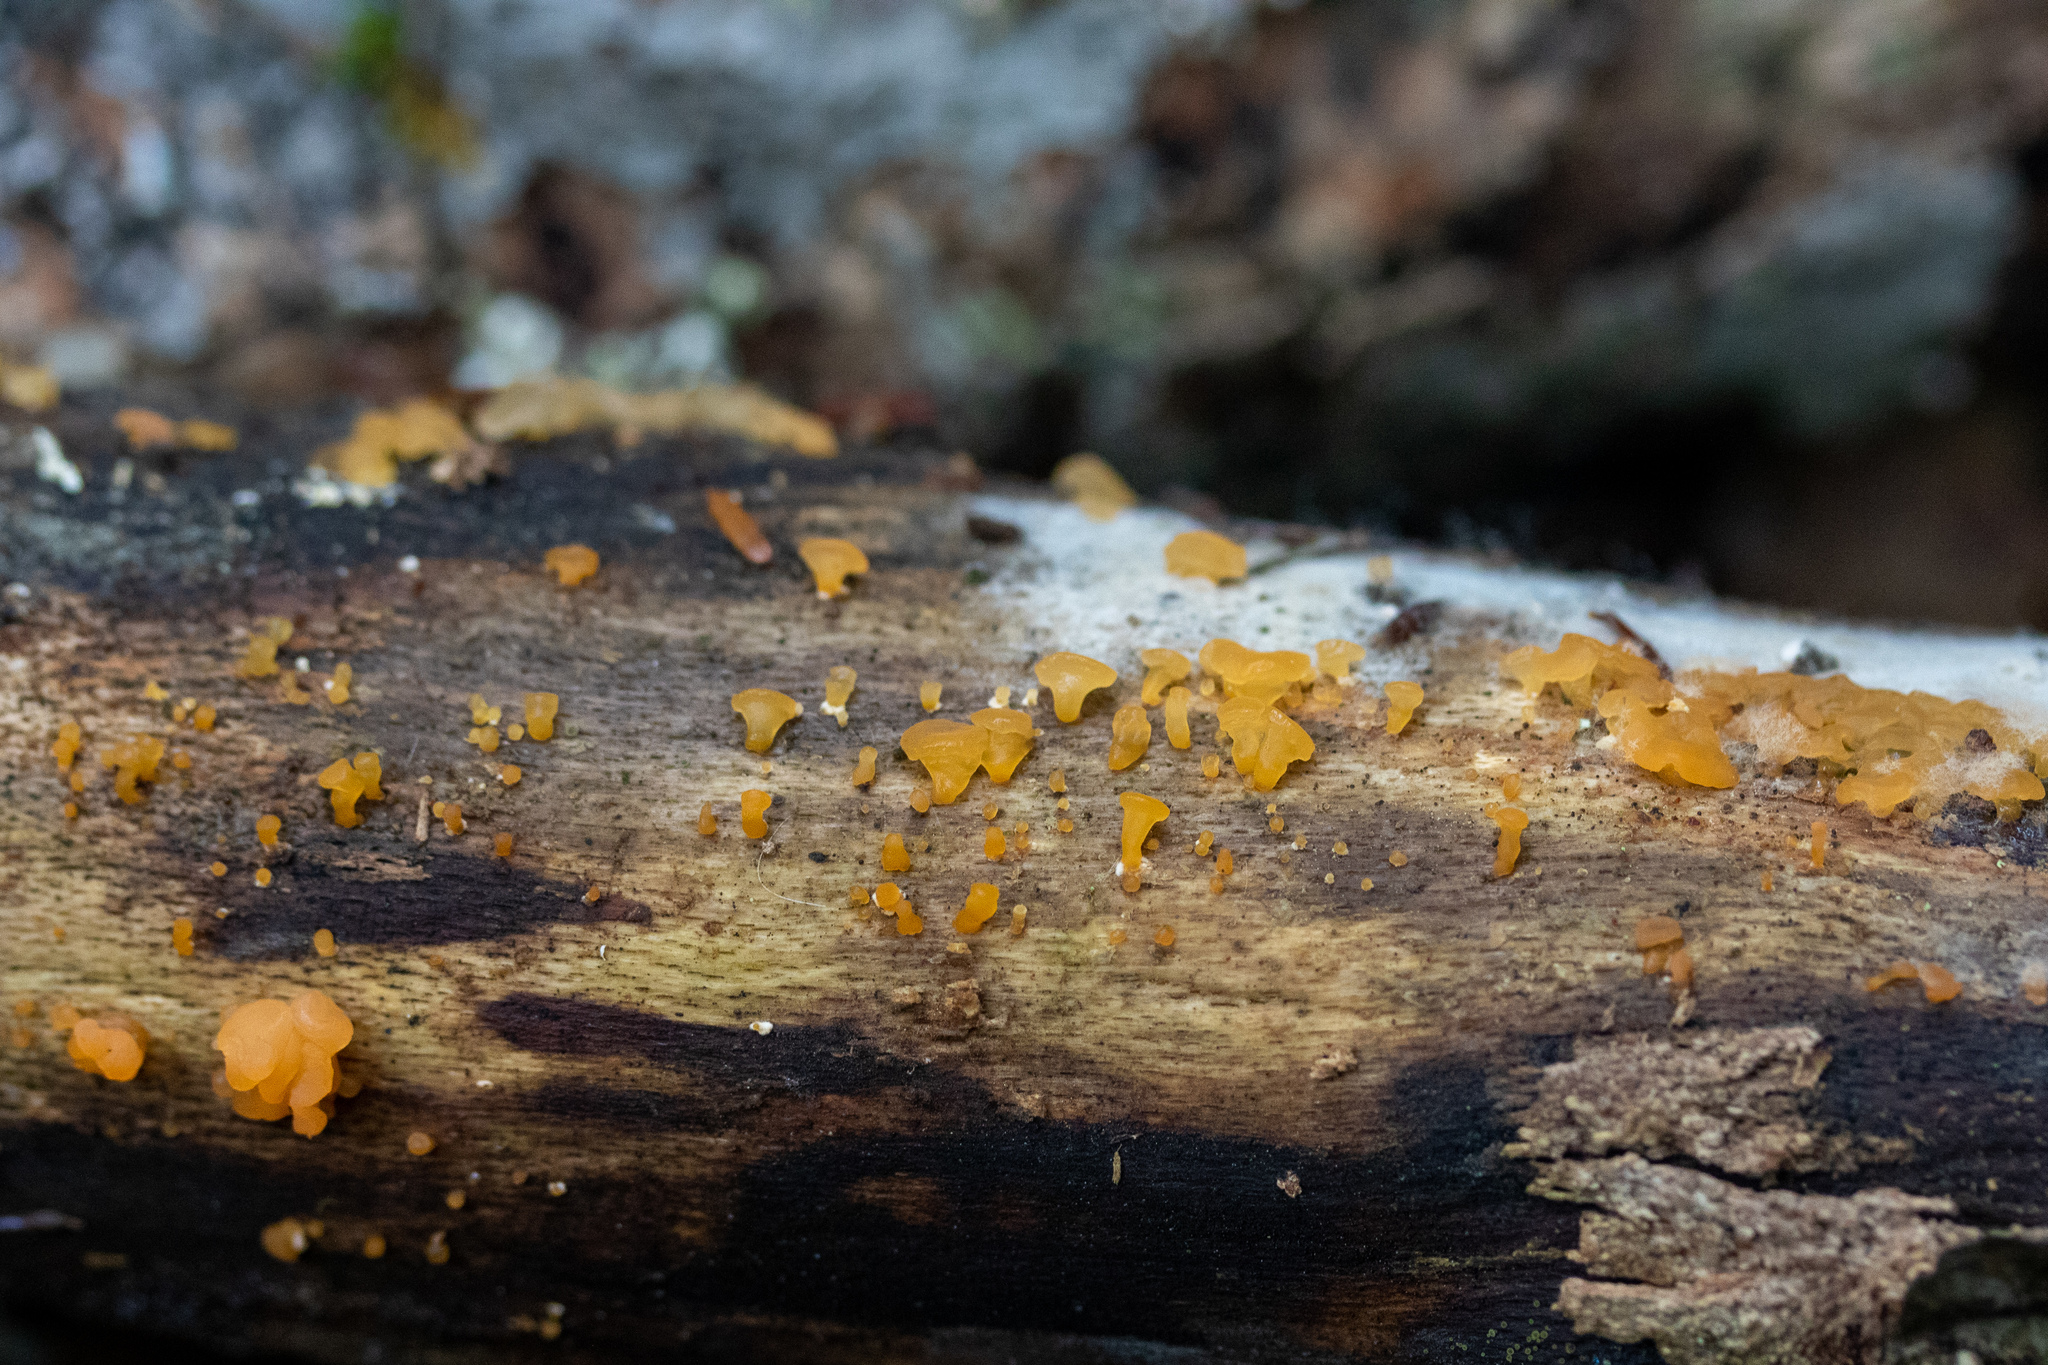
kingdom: Fungi
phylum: Basidiomycota
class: Dacrymycetes
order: Dacrymycetales
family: Dacrymycetaceae
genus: Dacrymyces
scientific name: Dacrymyces capitatus
